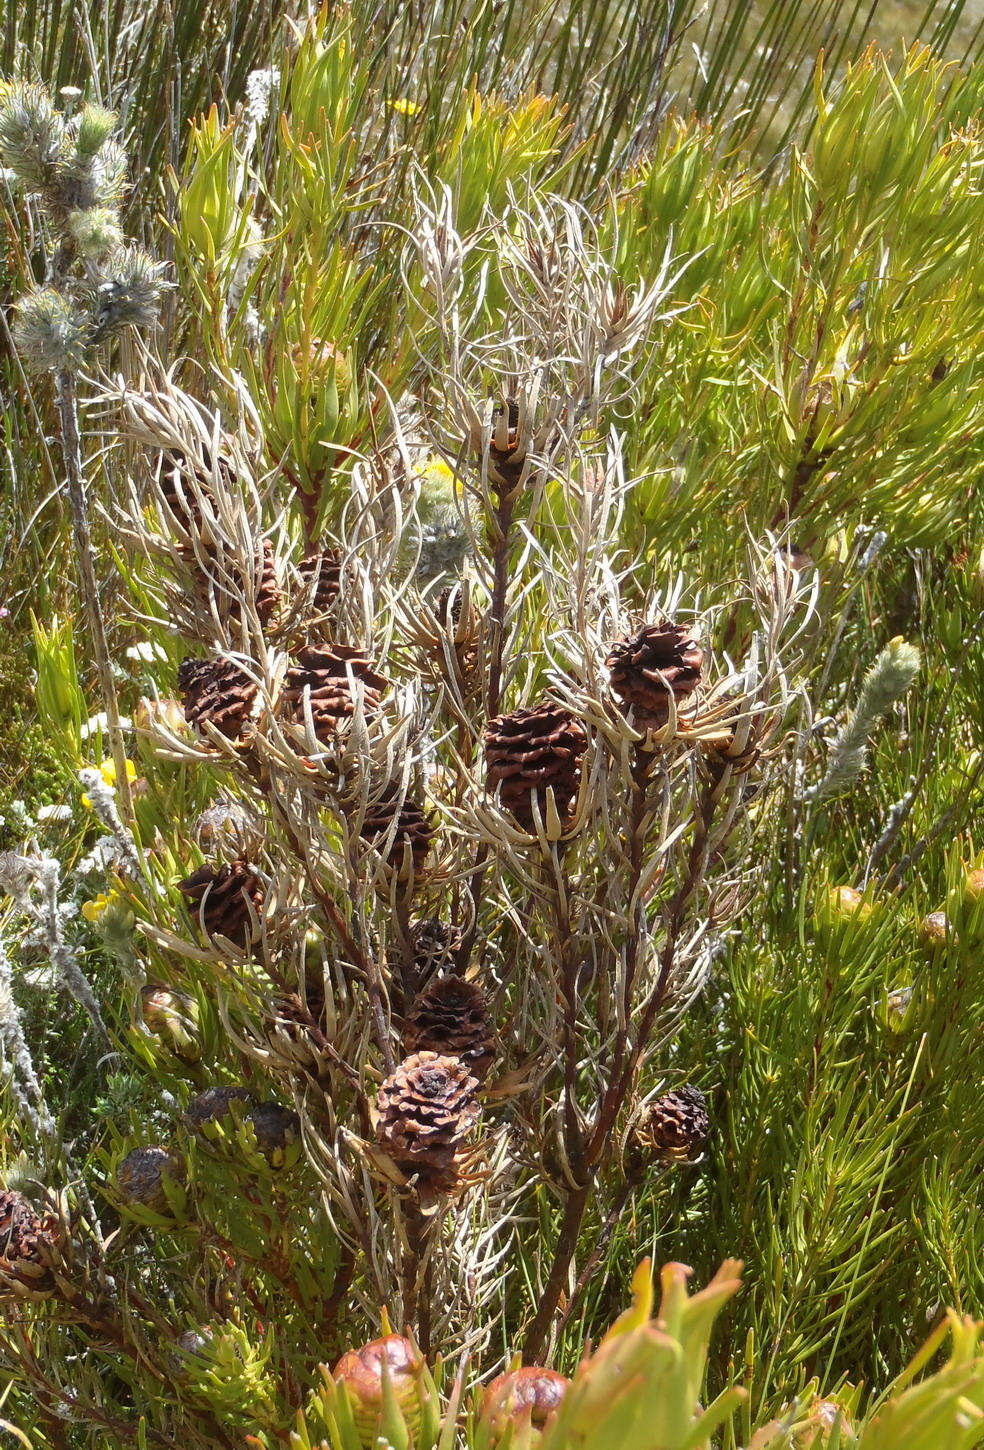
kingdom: Plantae
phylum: Tracheophyta
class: Magnoliopsida
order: Proteales
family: Proteaceae
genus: Leucadendron
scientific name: Leucadendron spissifolium
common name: Spear-leaf conebush
